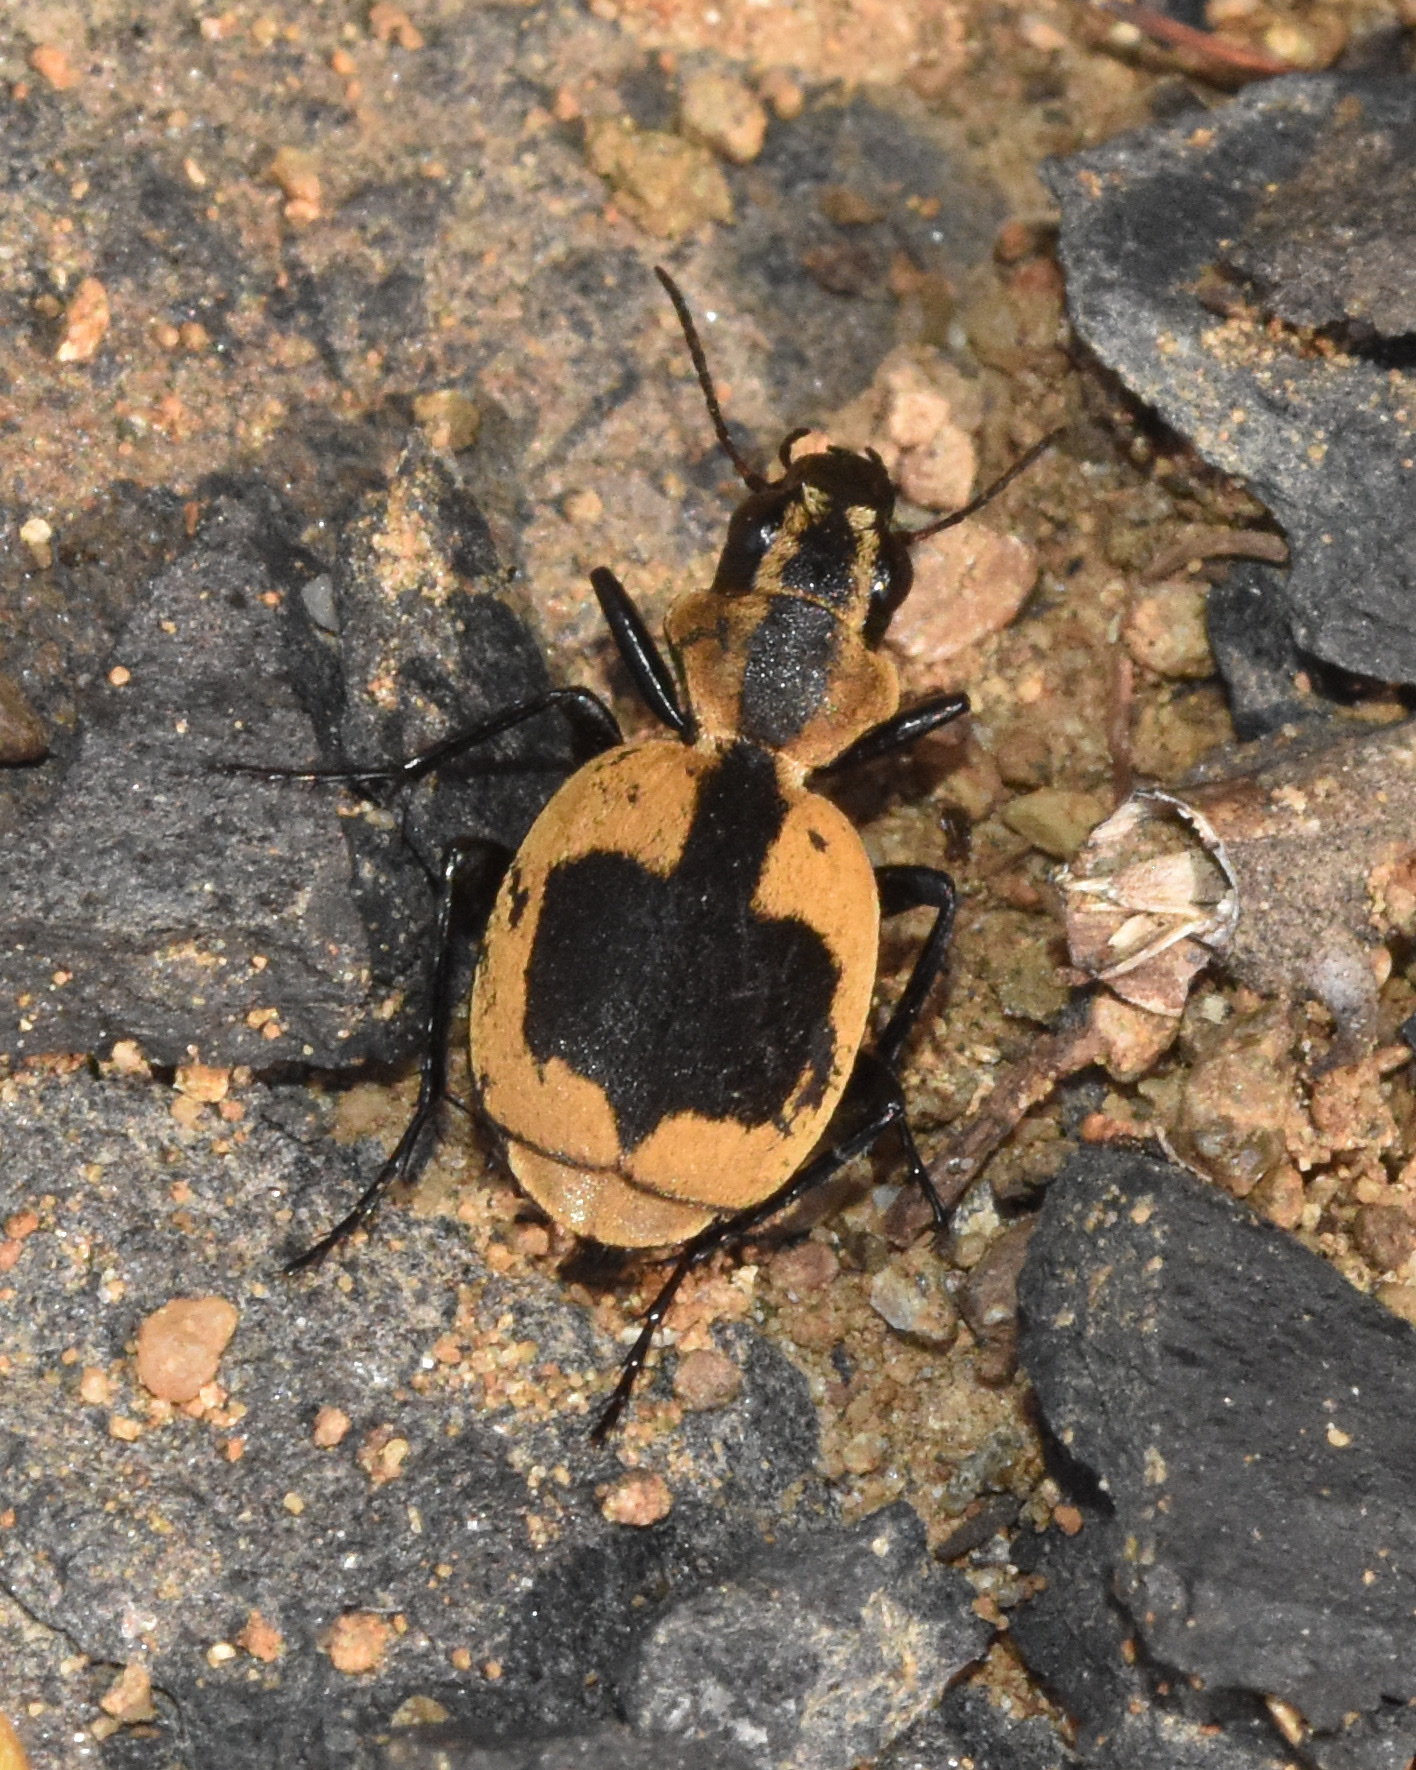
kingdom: Animalia
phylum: Arthropoda
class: Insecta
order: Coleoptera
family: Carabidae
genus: Graphipterus
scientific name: Graphipterus
